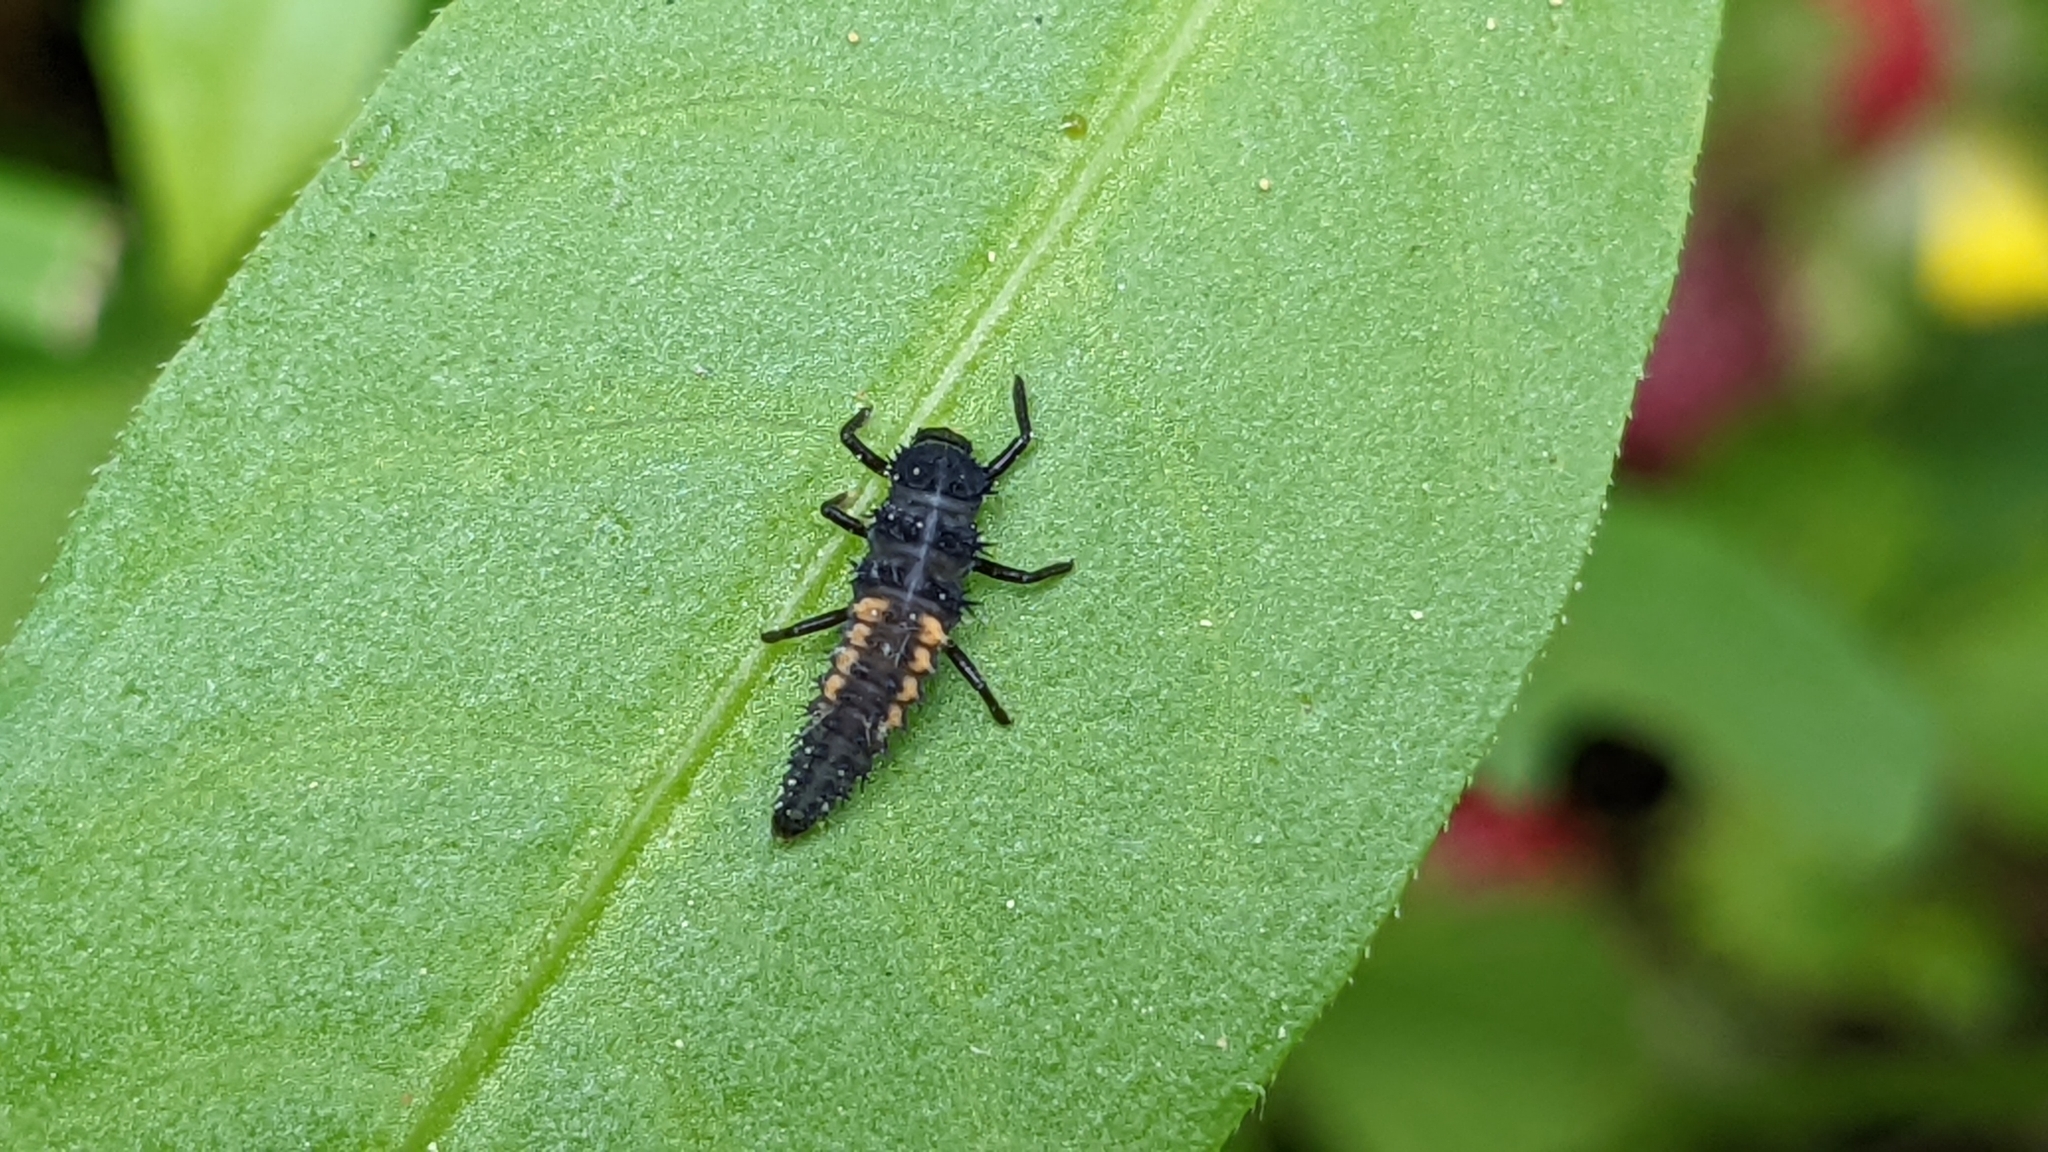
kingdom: Animalia
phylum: Arthropoda
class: Insecta
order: Coleoptera
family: Coccinellidae
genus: Harmonia
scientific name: Harmonia axyridis
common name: Harlequin ladybird
